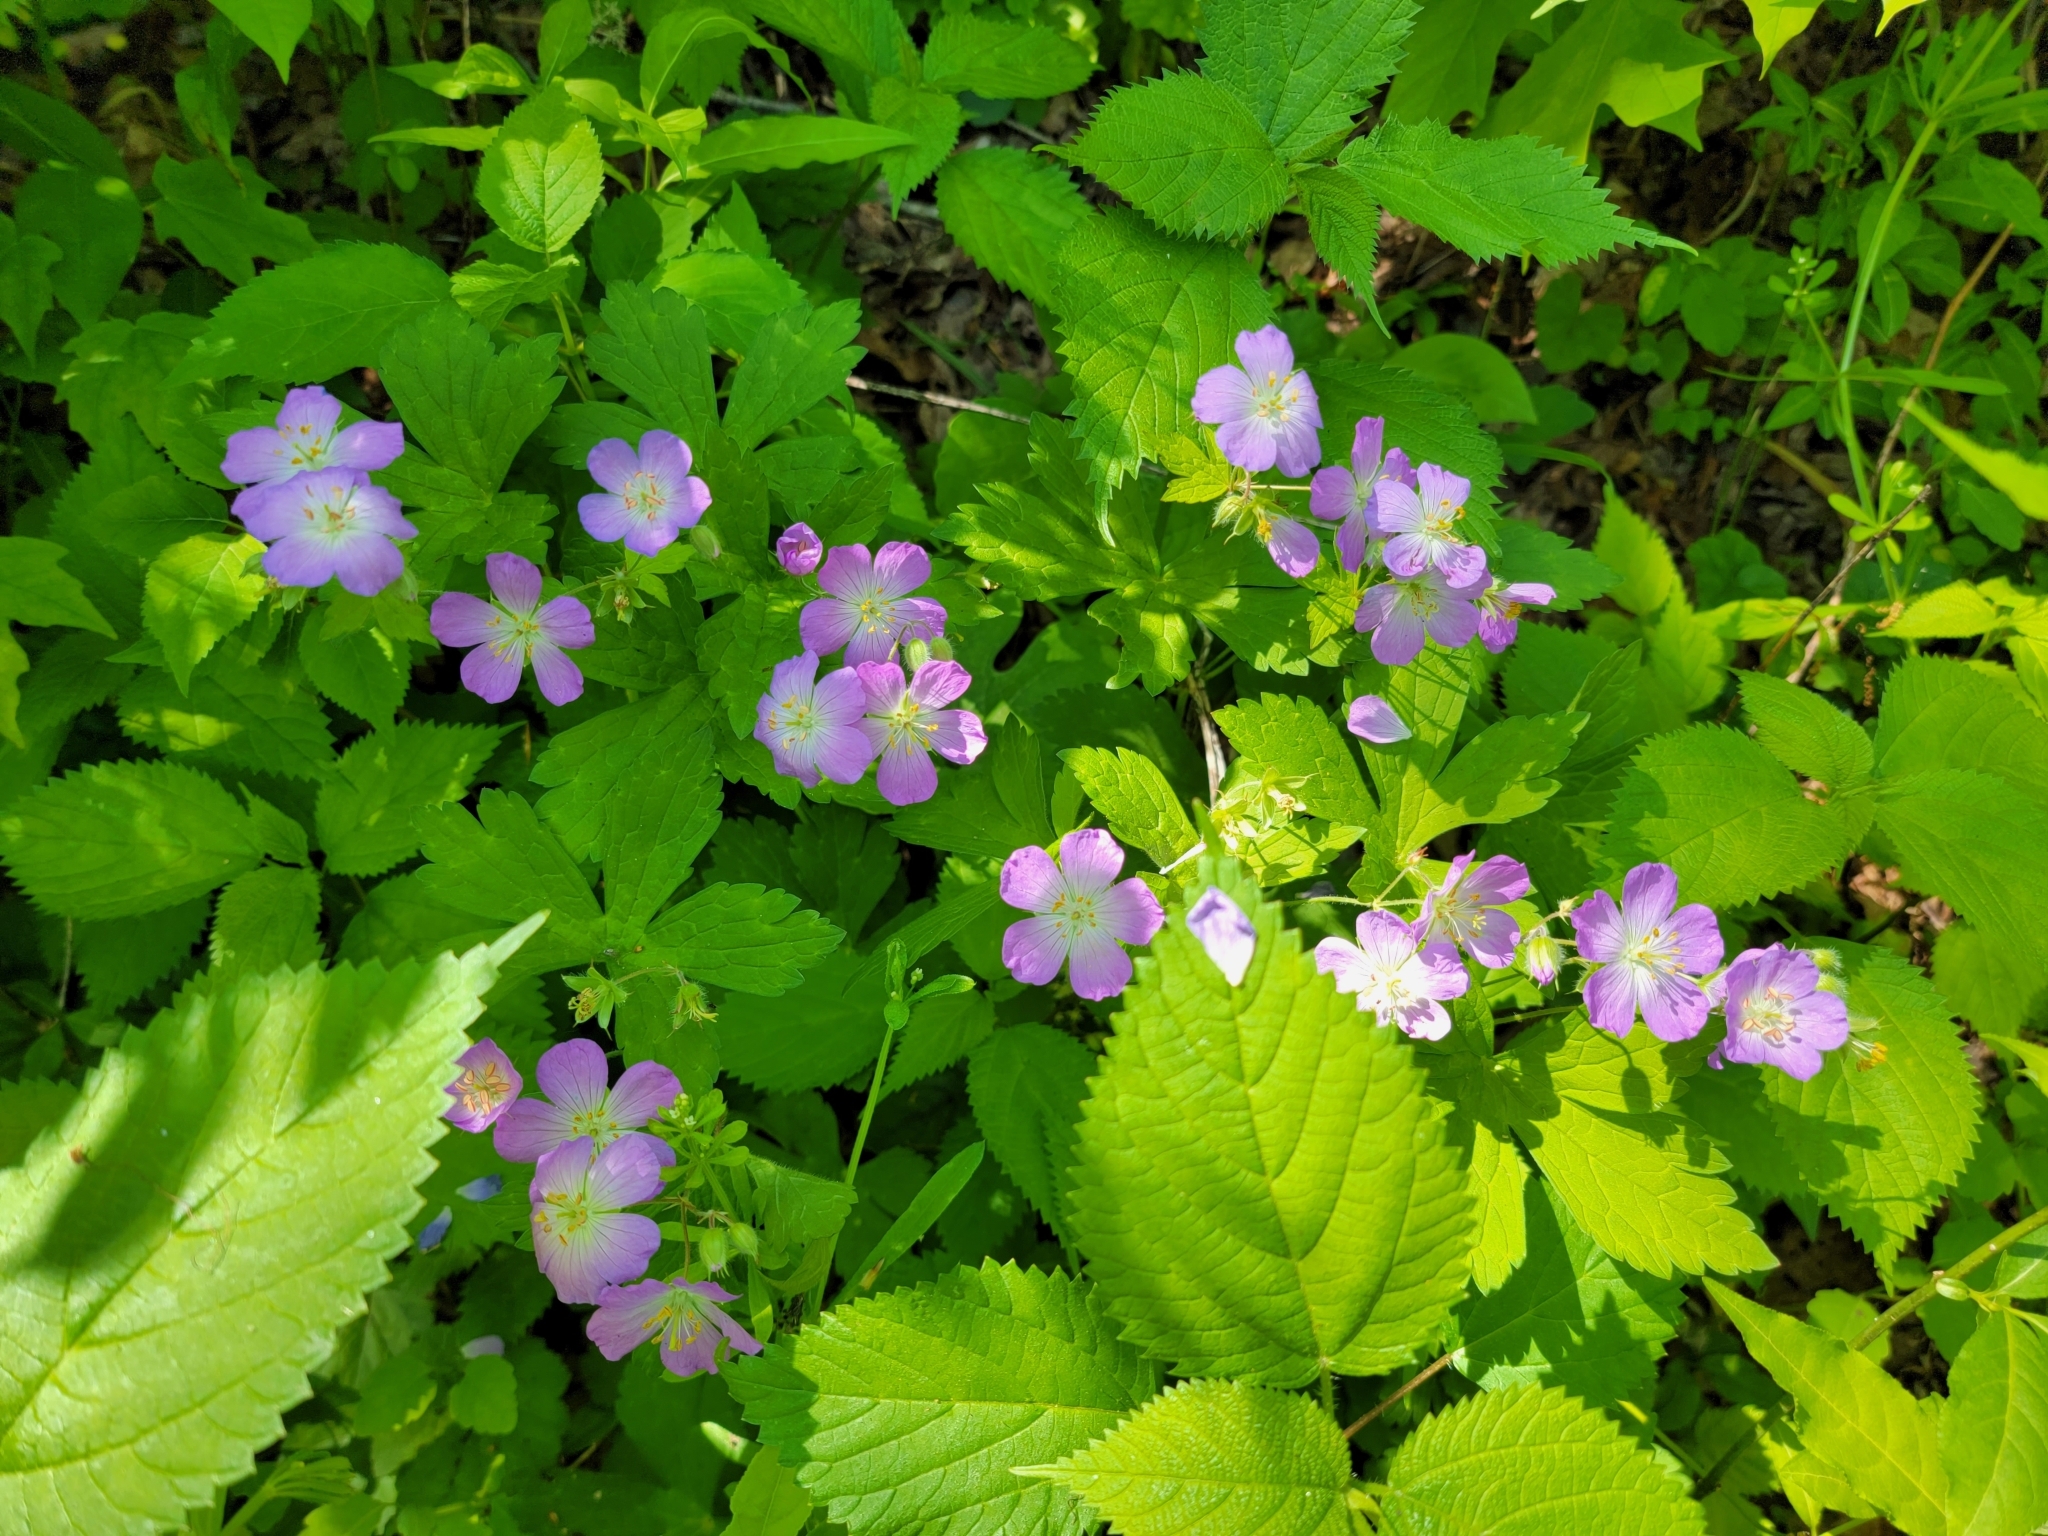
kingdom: Plantae
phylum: Tracheophyta
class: Magnoliopsida
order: Geraniales
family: Geraniaceae
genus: Geranium
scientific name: Geranium maculatum
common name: Spotted geranium
